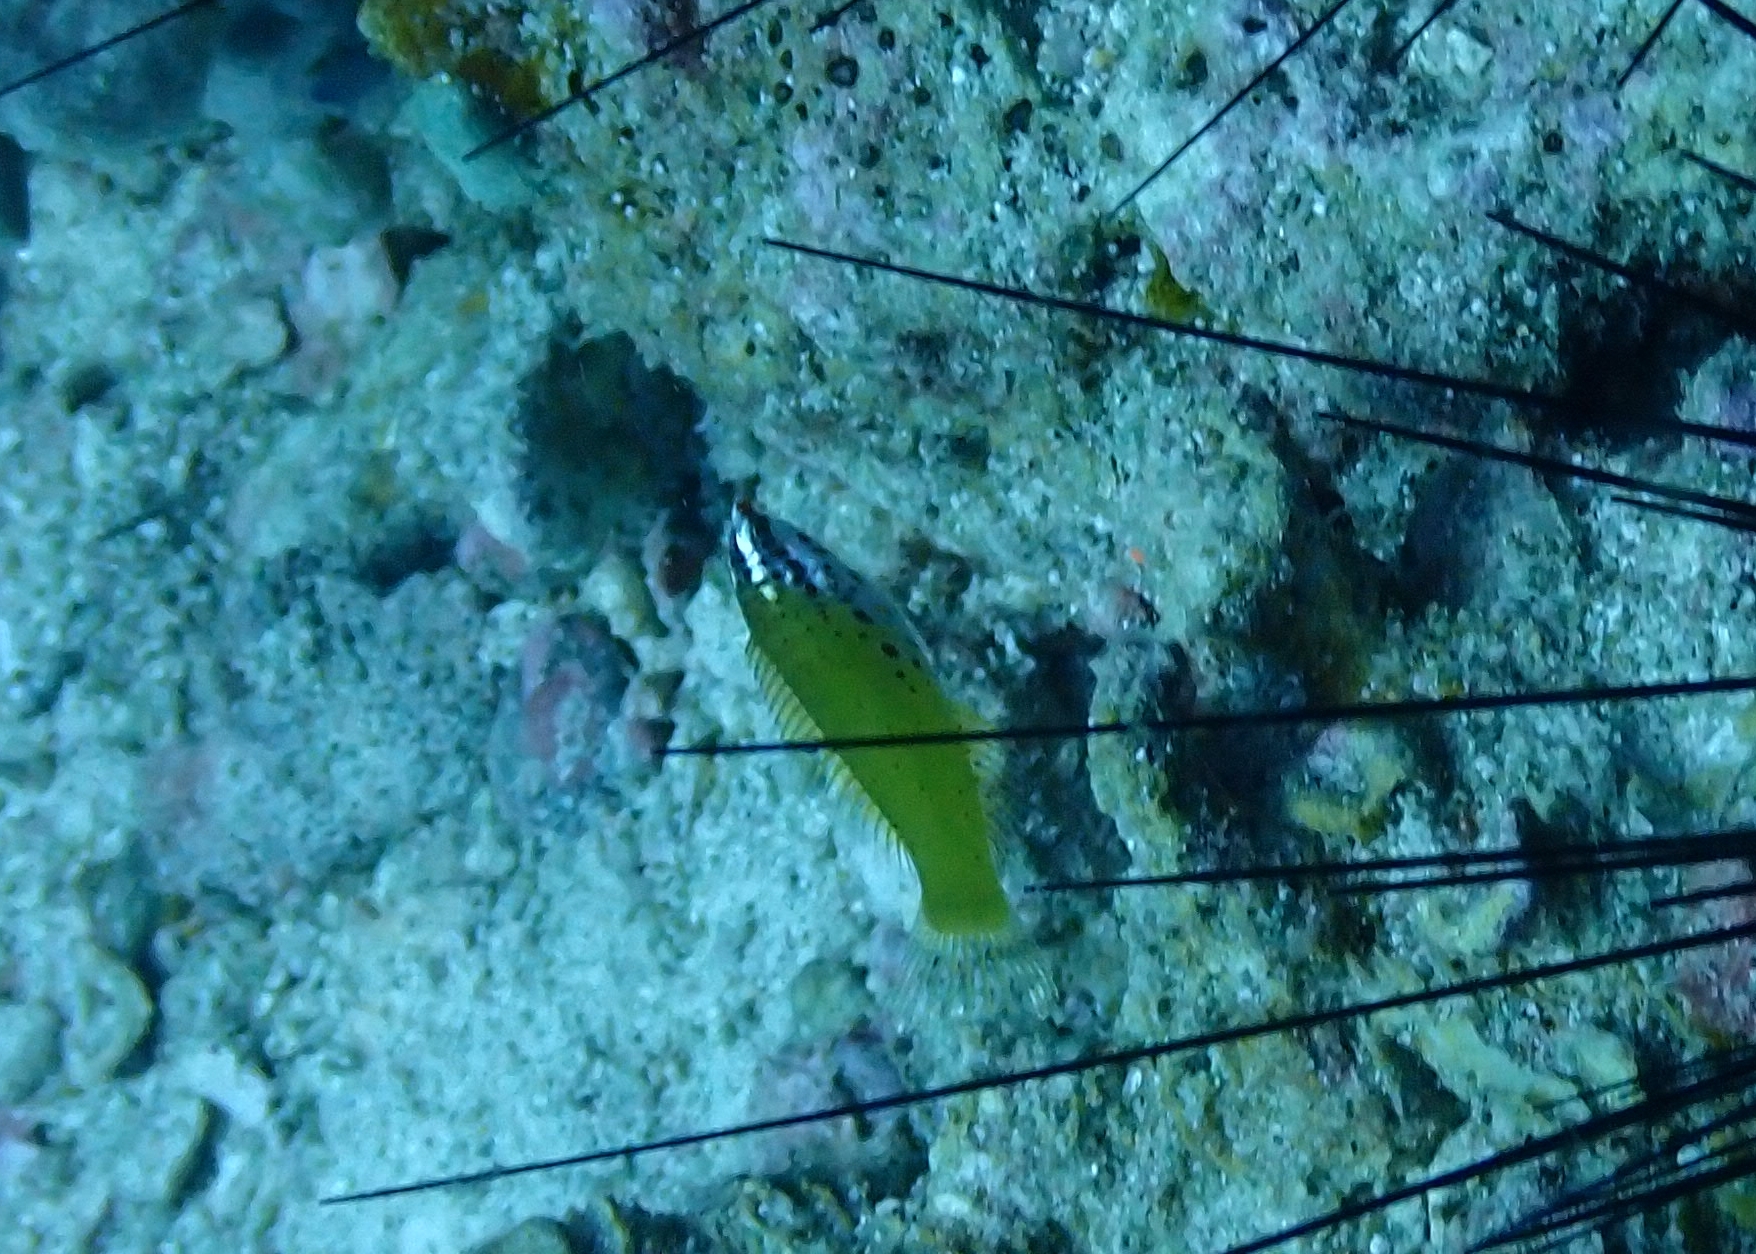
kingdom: Animalia
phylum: Chordata
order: Perciformes
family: Labridae
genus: Coris
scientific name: Coris batuensis
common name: Batu coris
